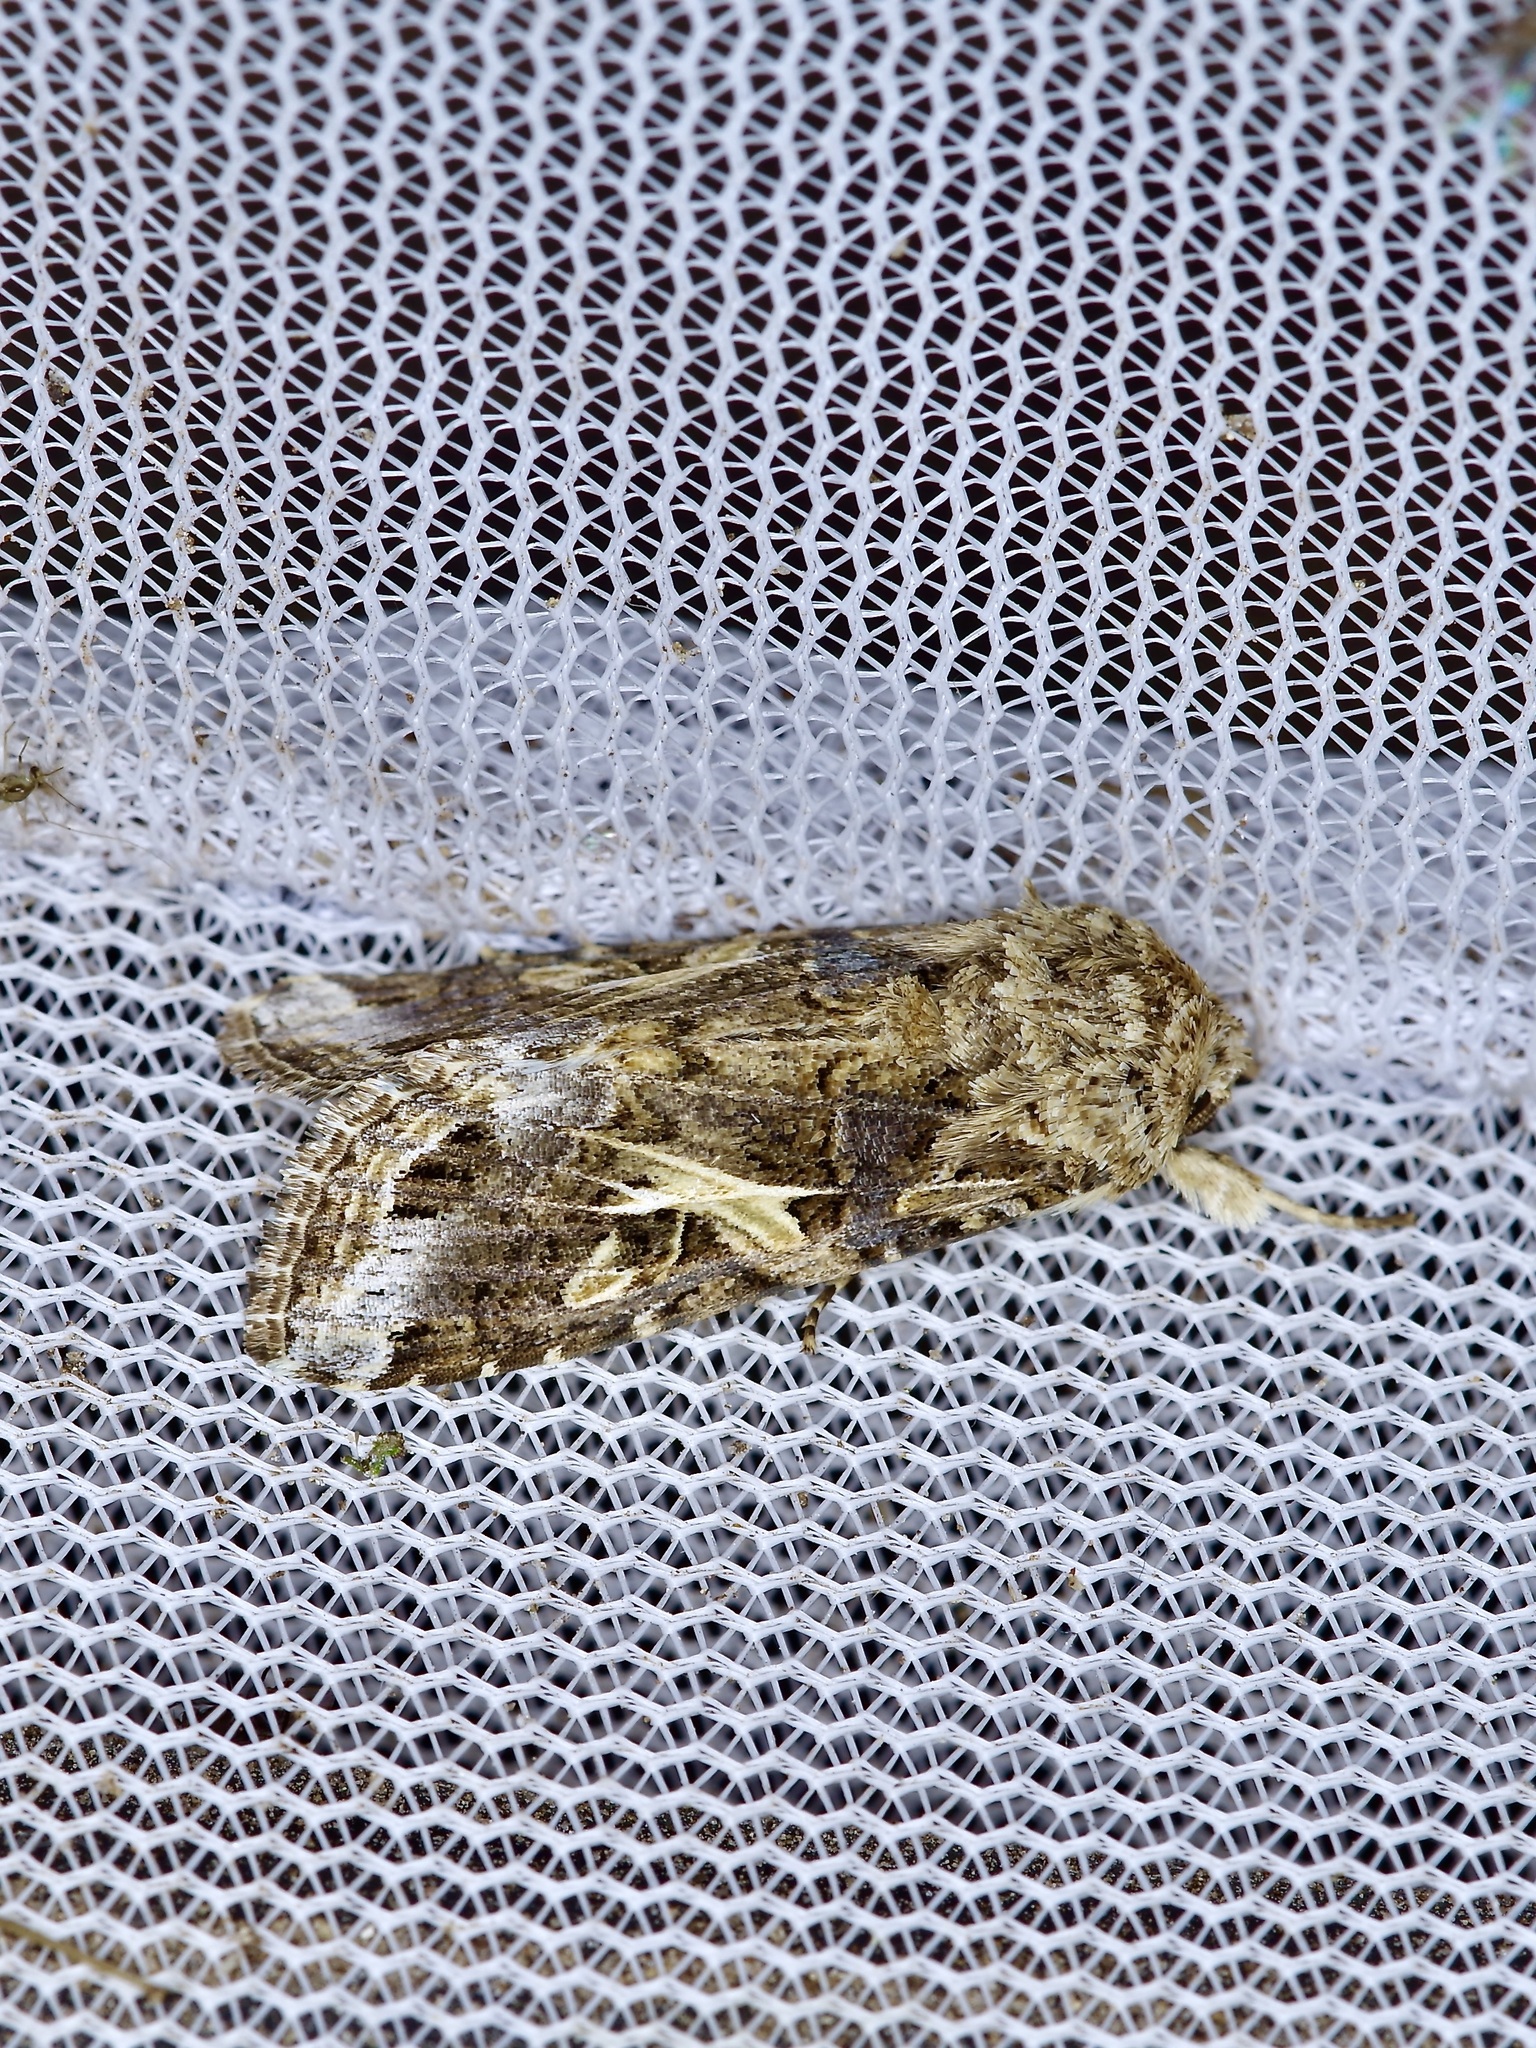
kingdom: Animalia
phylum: Arthropoda
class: Insecta
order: Lepidoptera
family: Noctuidae
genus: Spodoptera
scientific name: Spodoptera ornithogalli
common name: Yellow-striped armyworm
